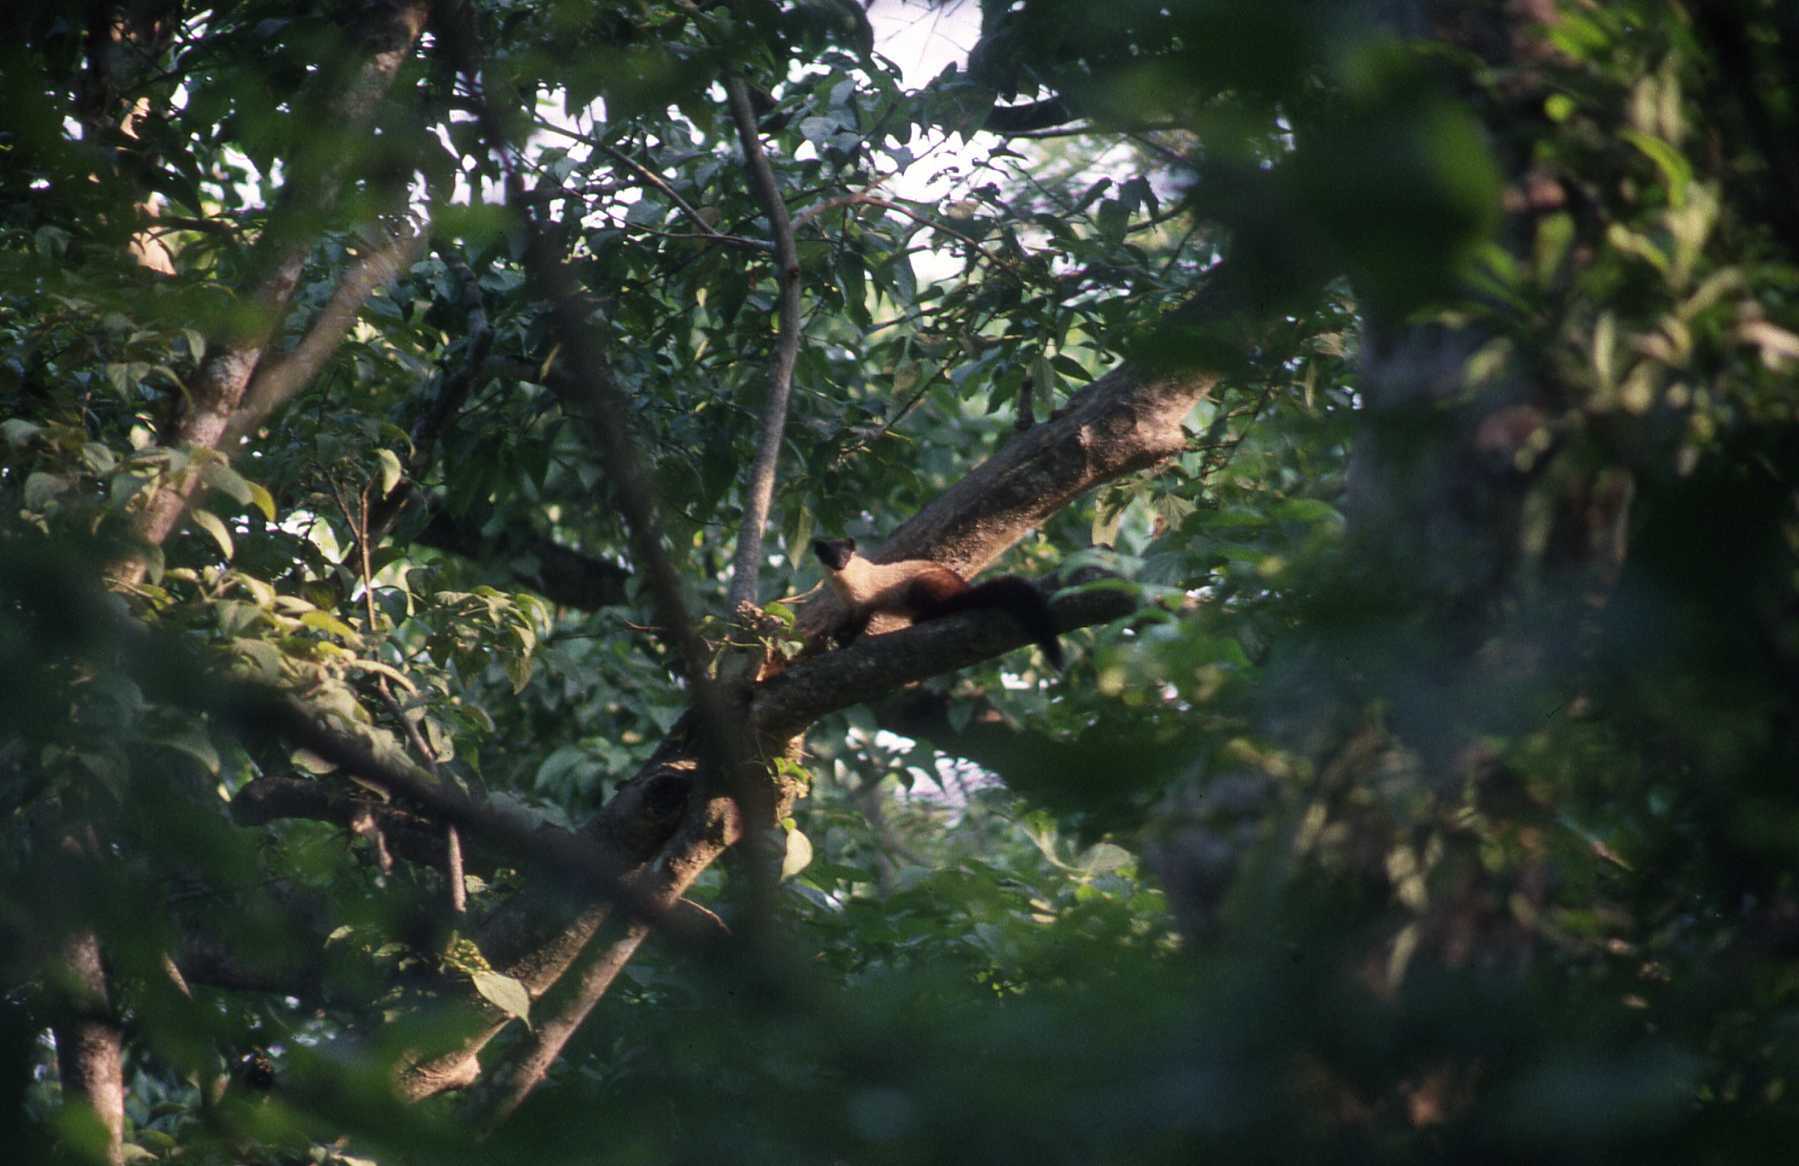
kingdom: Animalia
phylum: Chordata
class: Mammalia
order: Carnivora
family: Mustelidae
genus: Martes
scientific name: Martes flavigula
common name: Yellow-throated marten
